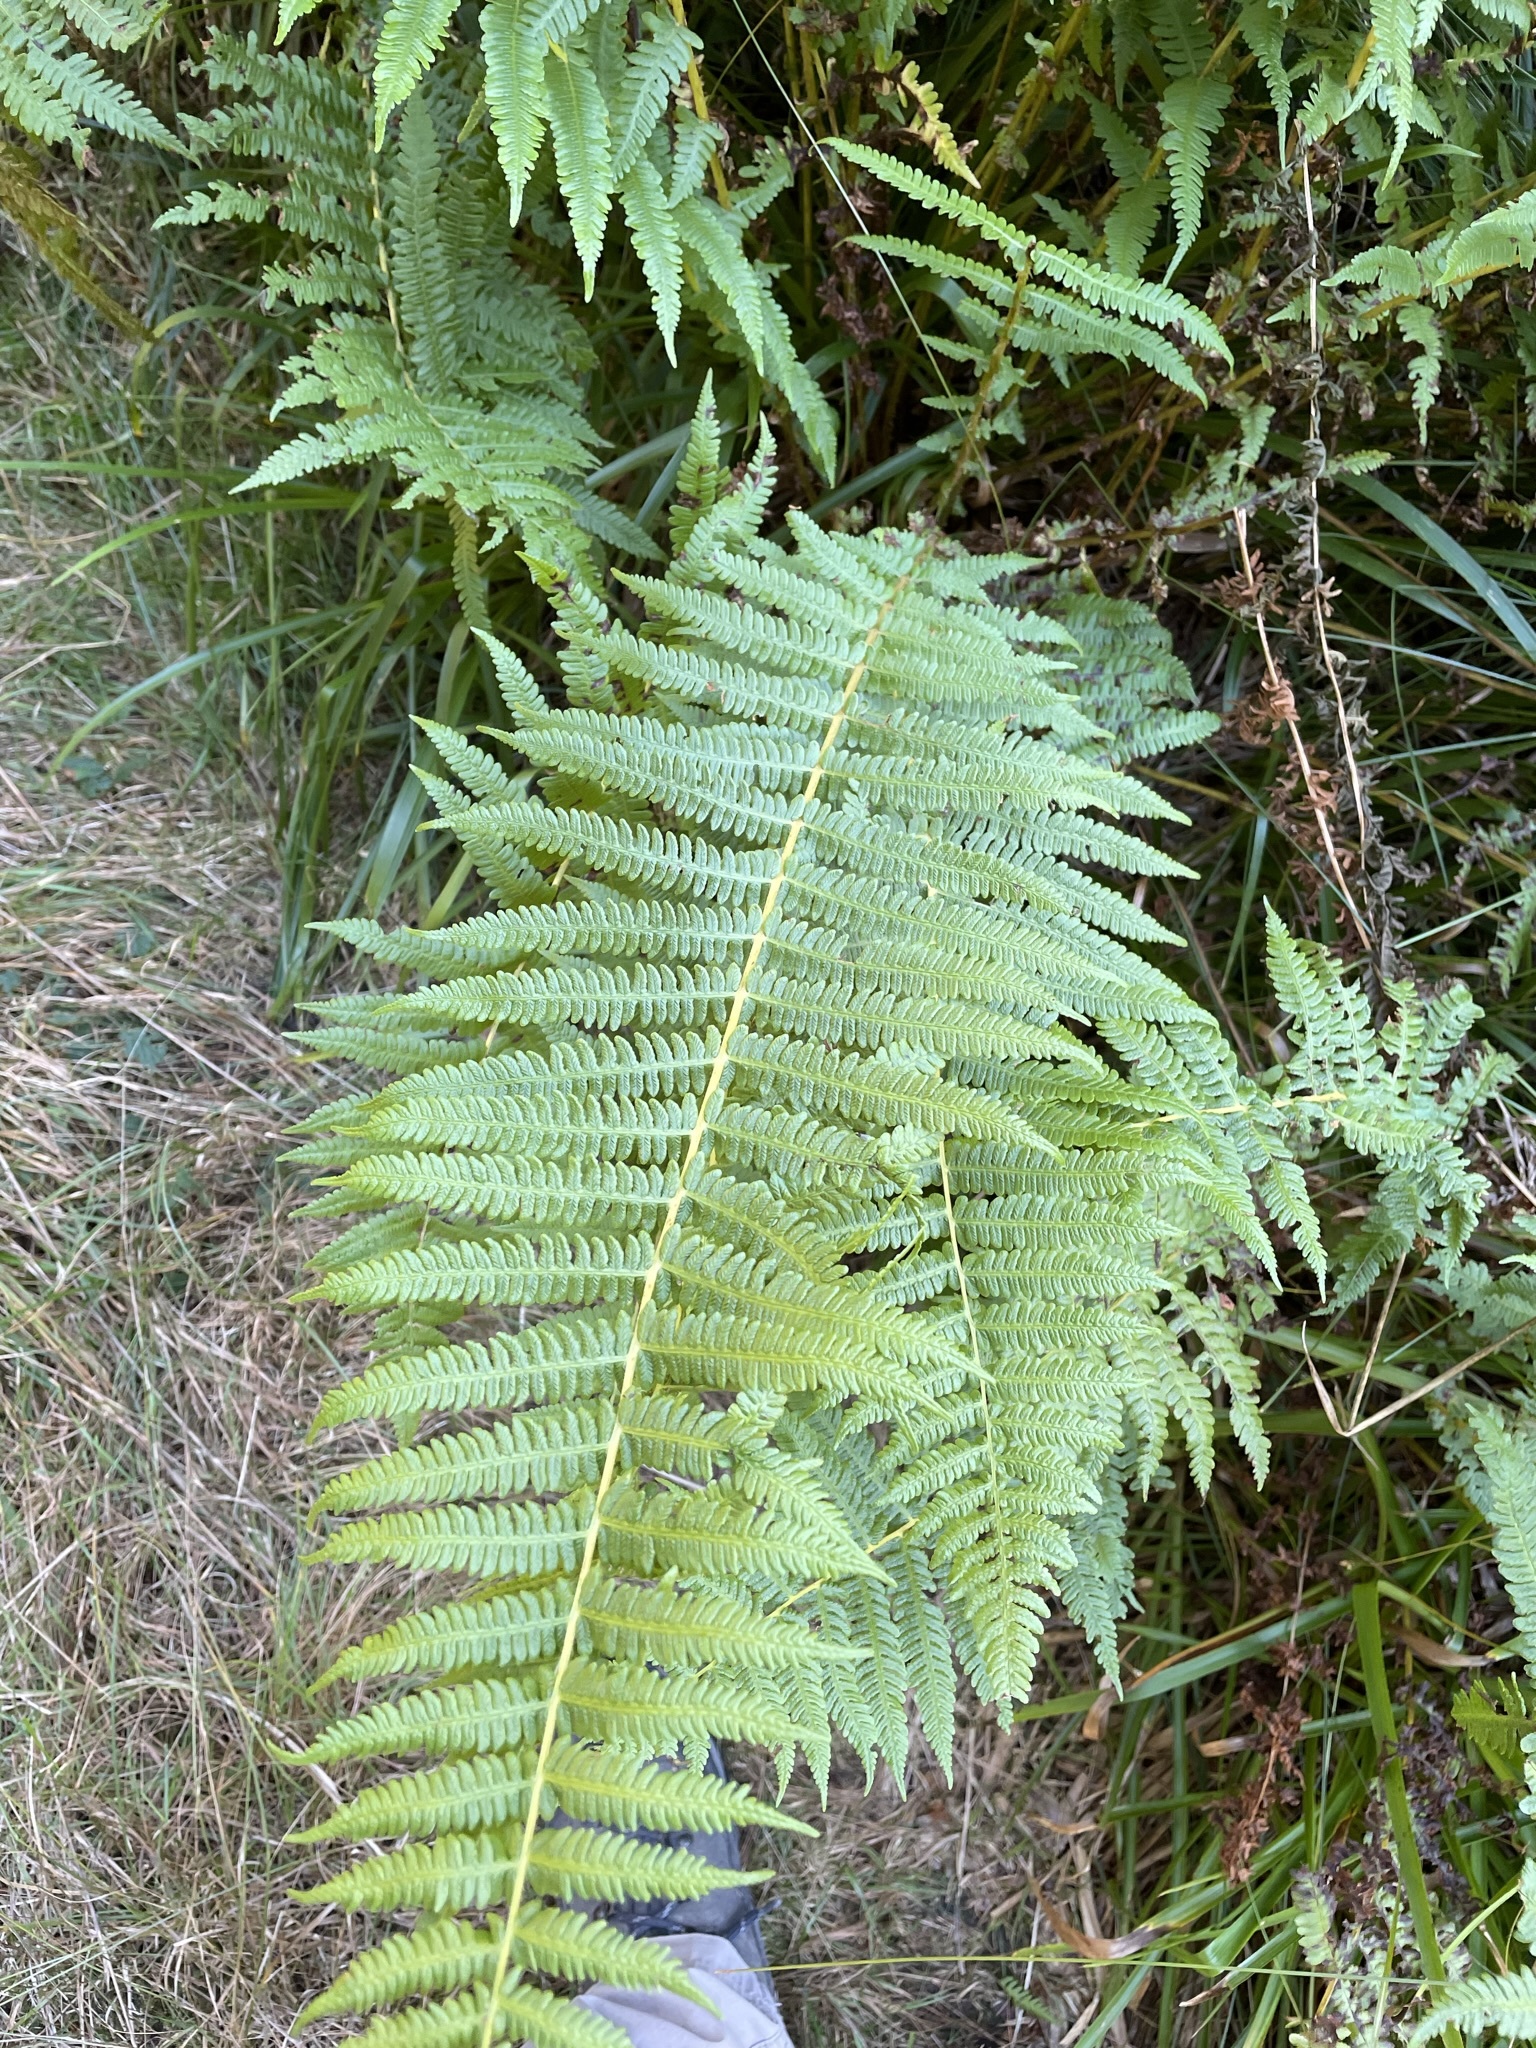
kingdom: Plantae
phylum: Tracheophyta
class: Polypodiopsida
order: Polypodiales
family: Thelypteridaceae
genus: Oreopteris
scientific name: Oreopteris limbosperma
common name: Lemon-scented fern
